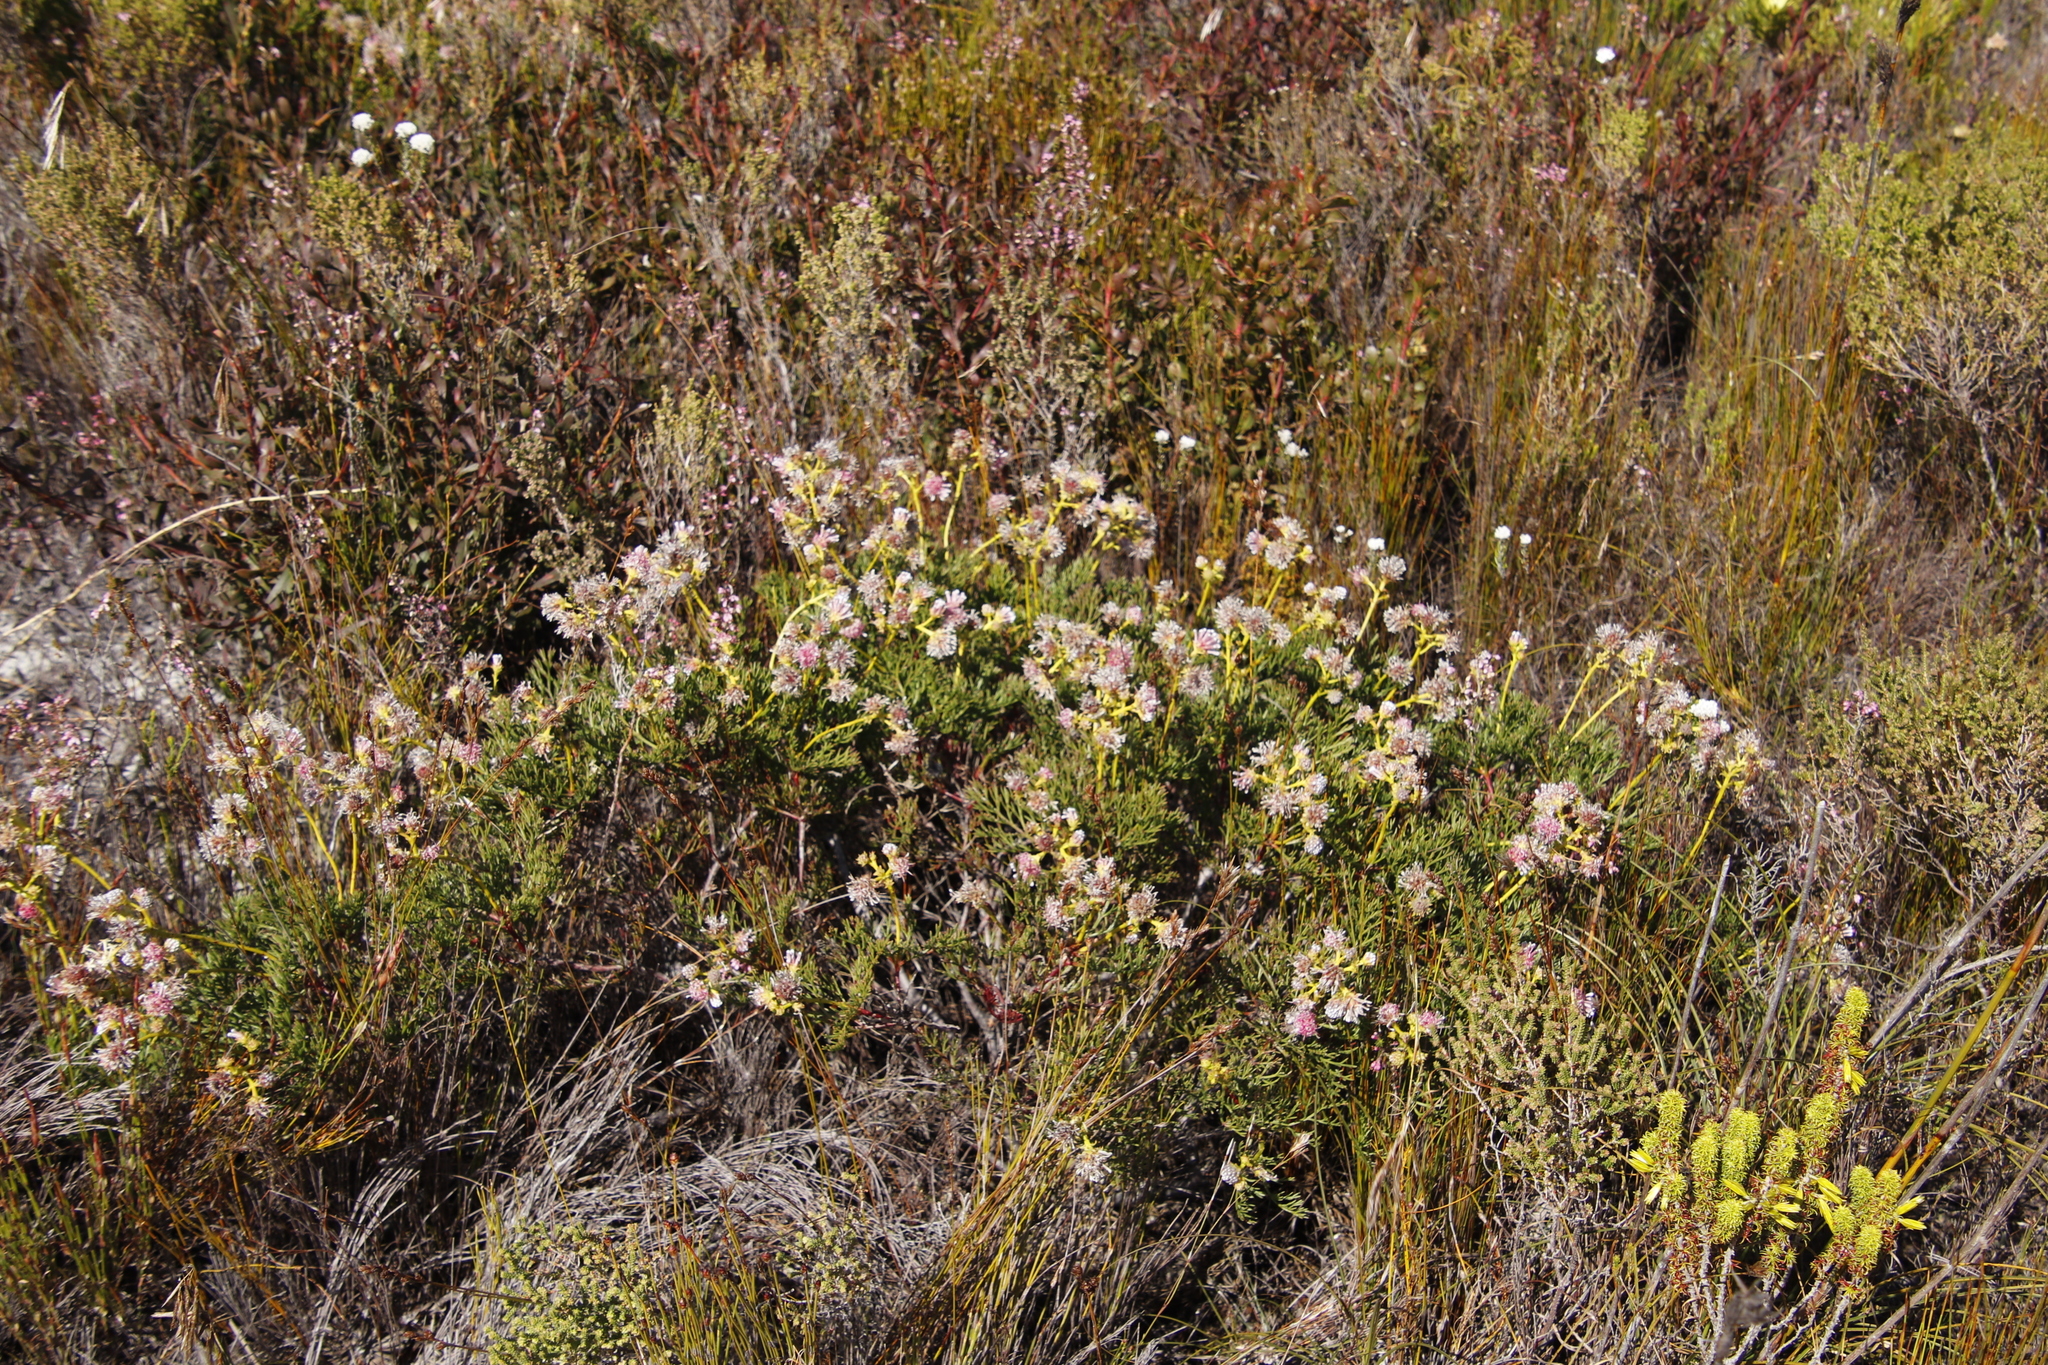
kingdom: Plantae
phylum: Tracheophyta
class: Magnoliopsida
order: Proteales
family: Proteaceae
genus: Serruria
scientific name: Serruria elongata
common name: Long-stalk spiderhead
